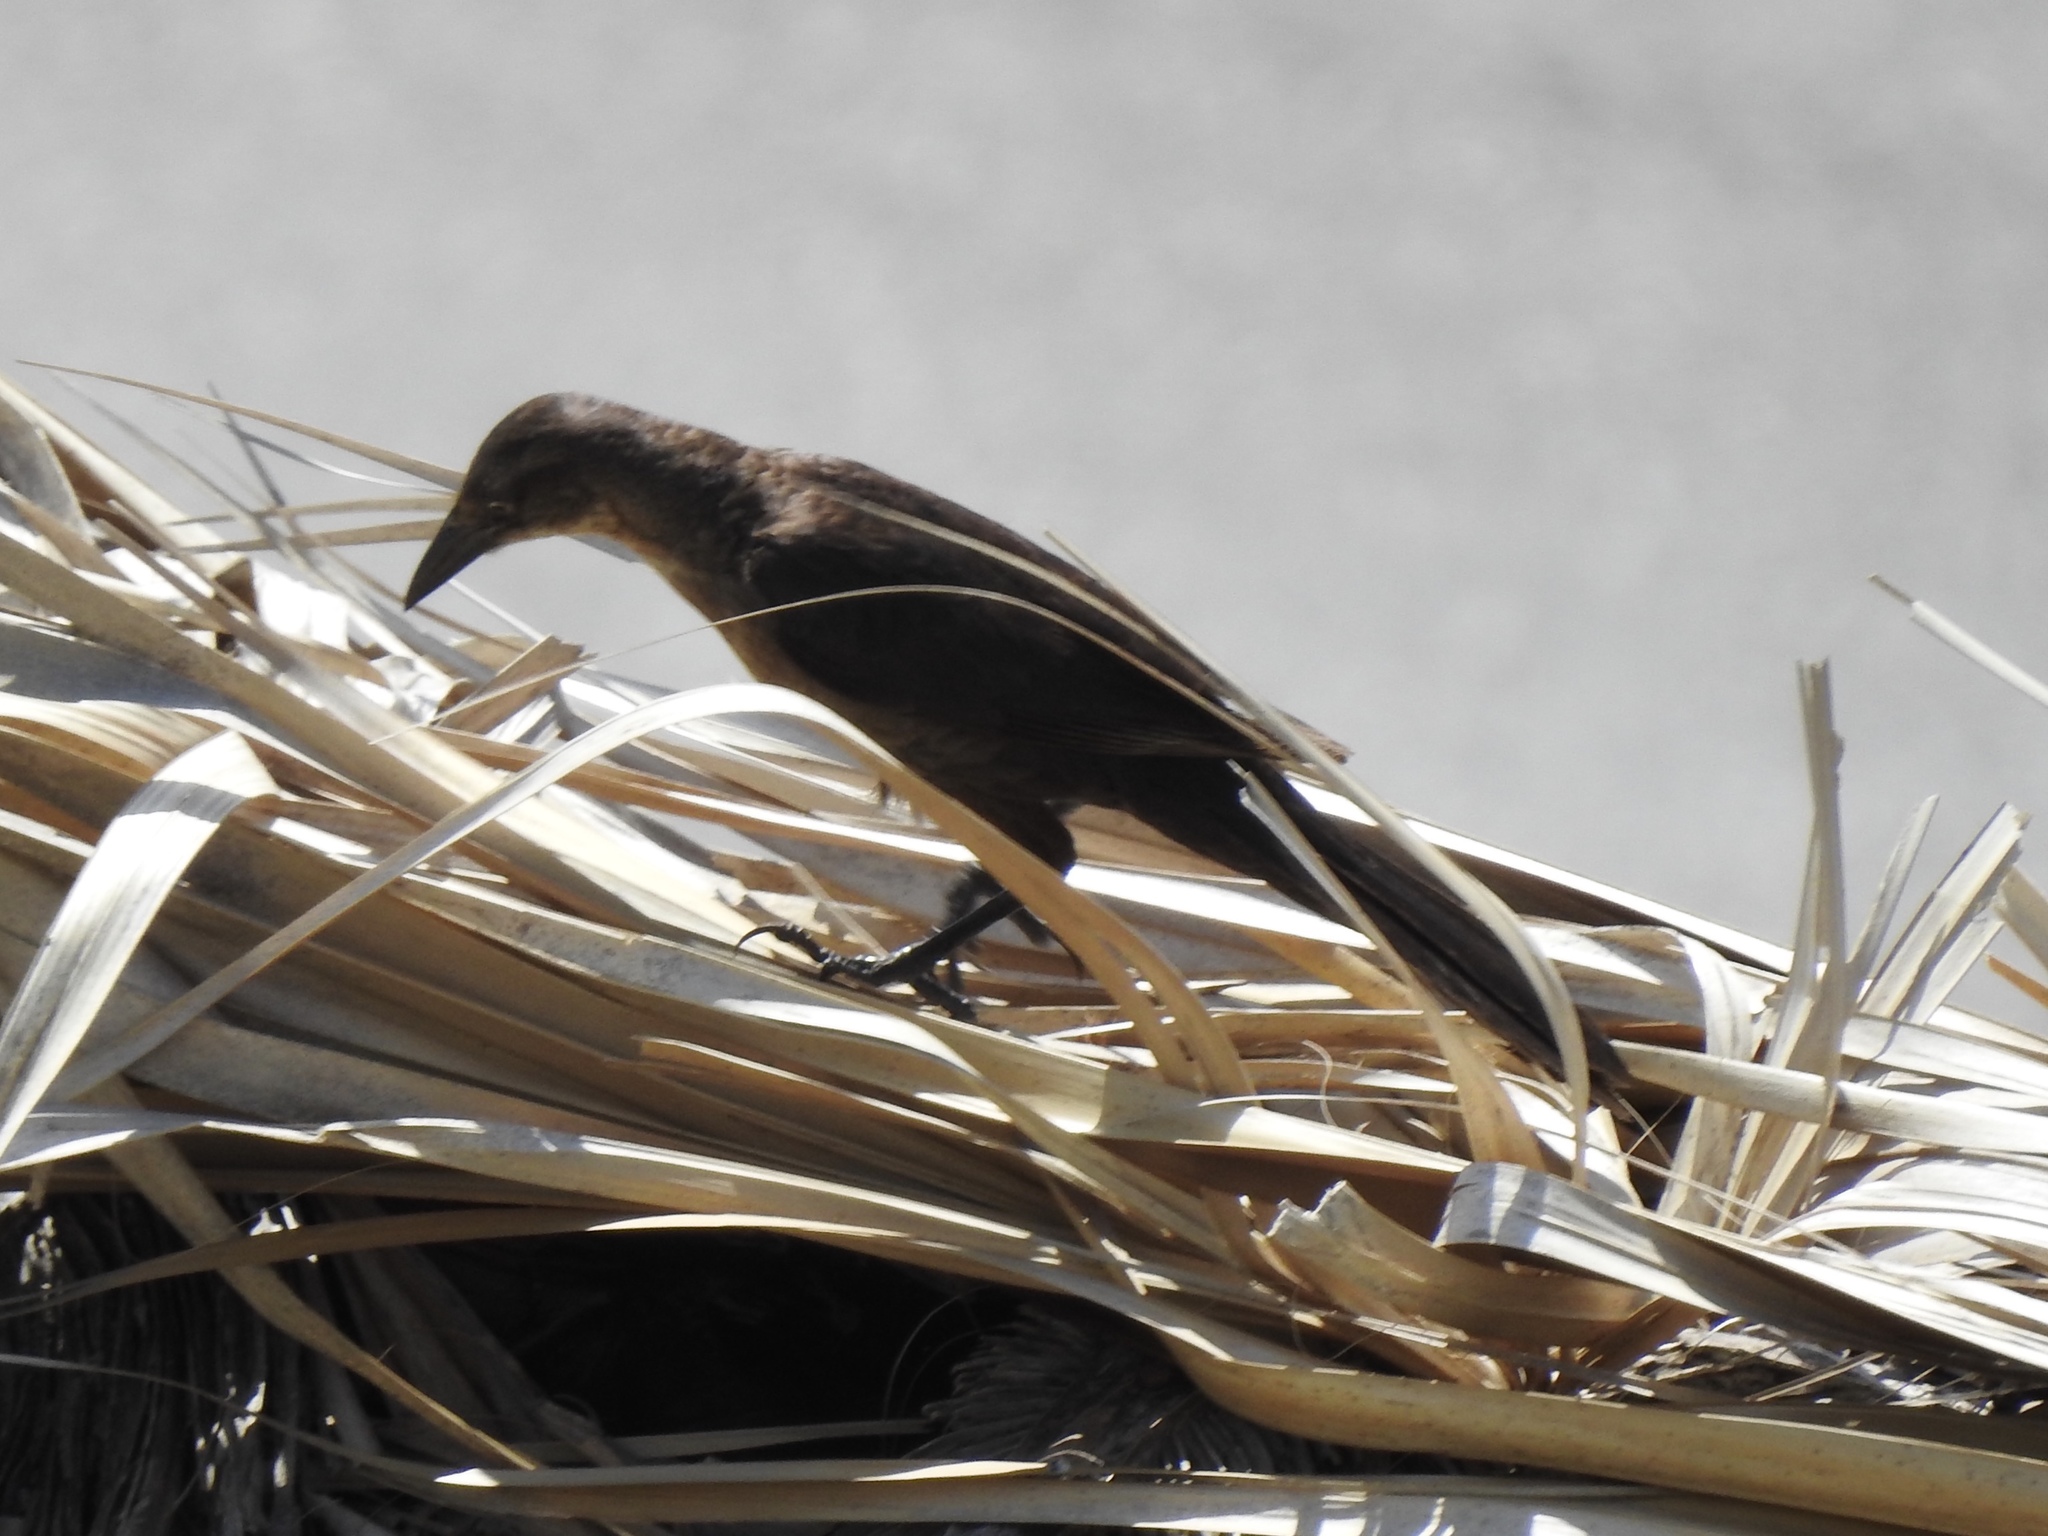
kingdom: Animalia
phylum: Chordata
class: Aves
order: Passeriformes
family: Icteridae
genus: Quiscalus
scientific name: Quiscalus mexicanus
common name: Great-tailed grackle
